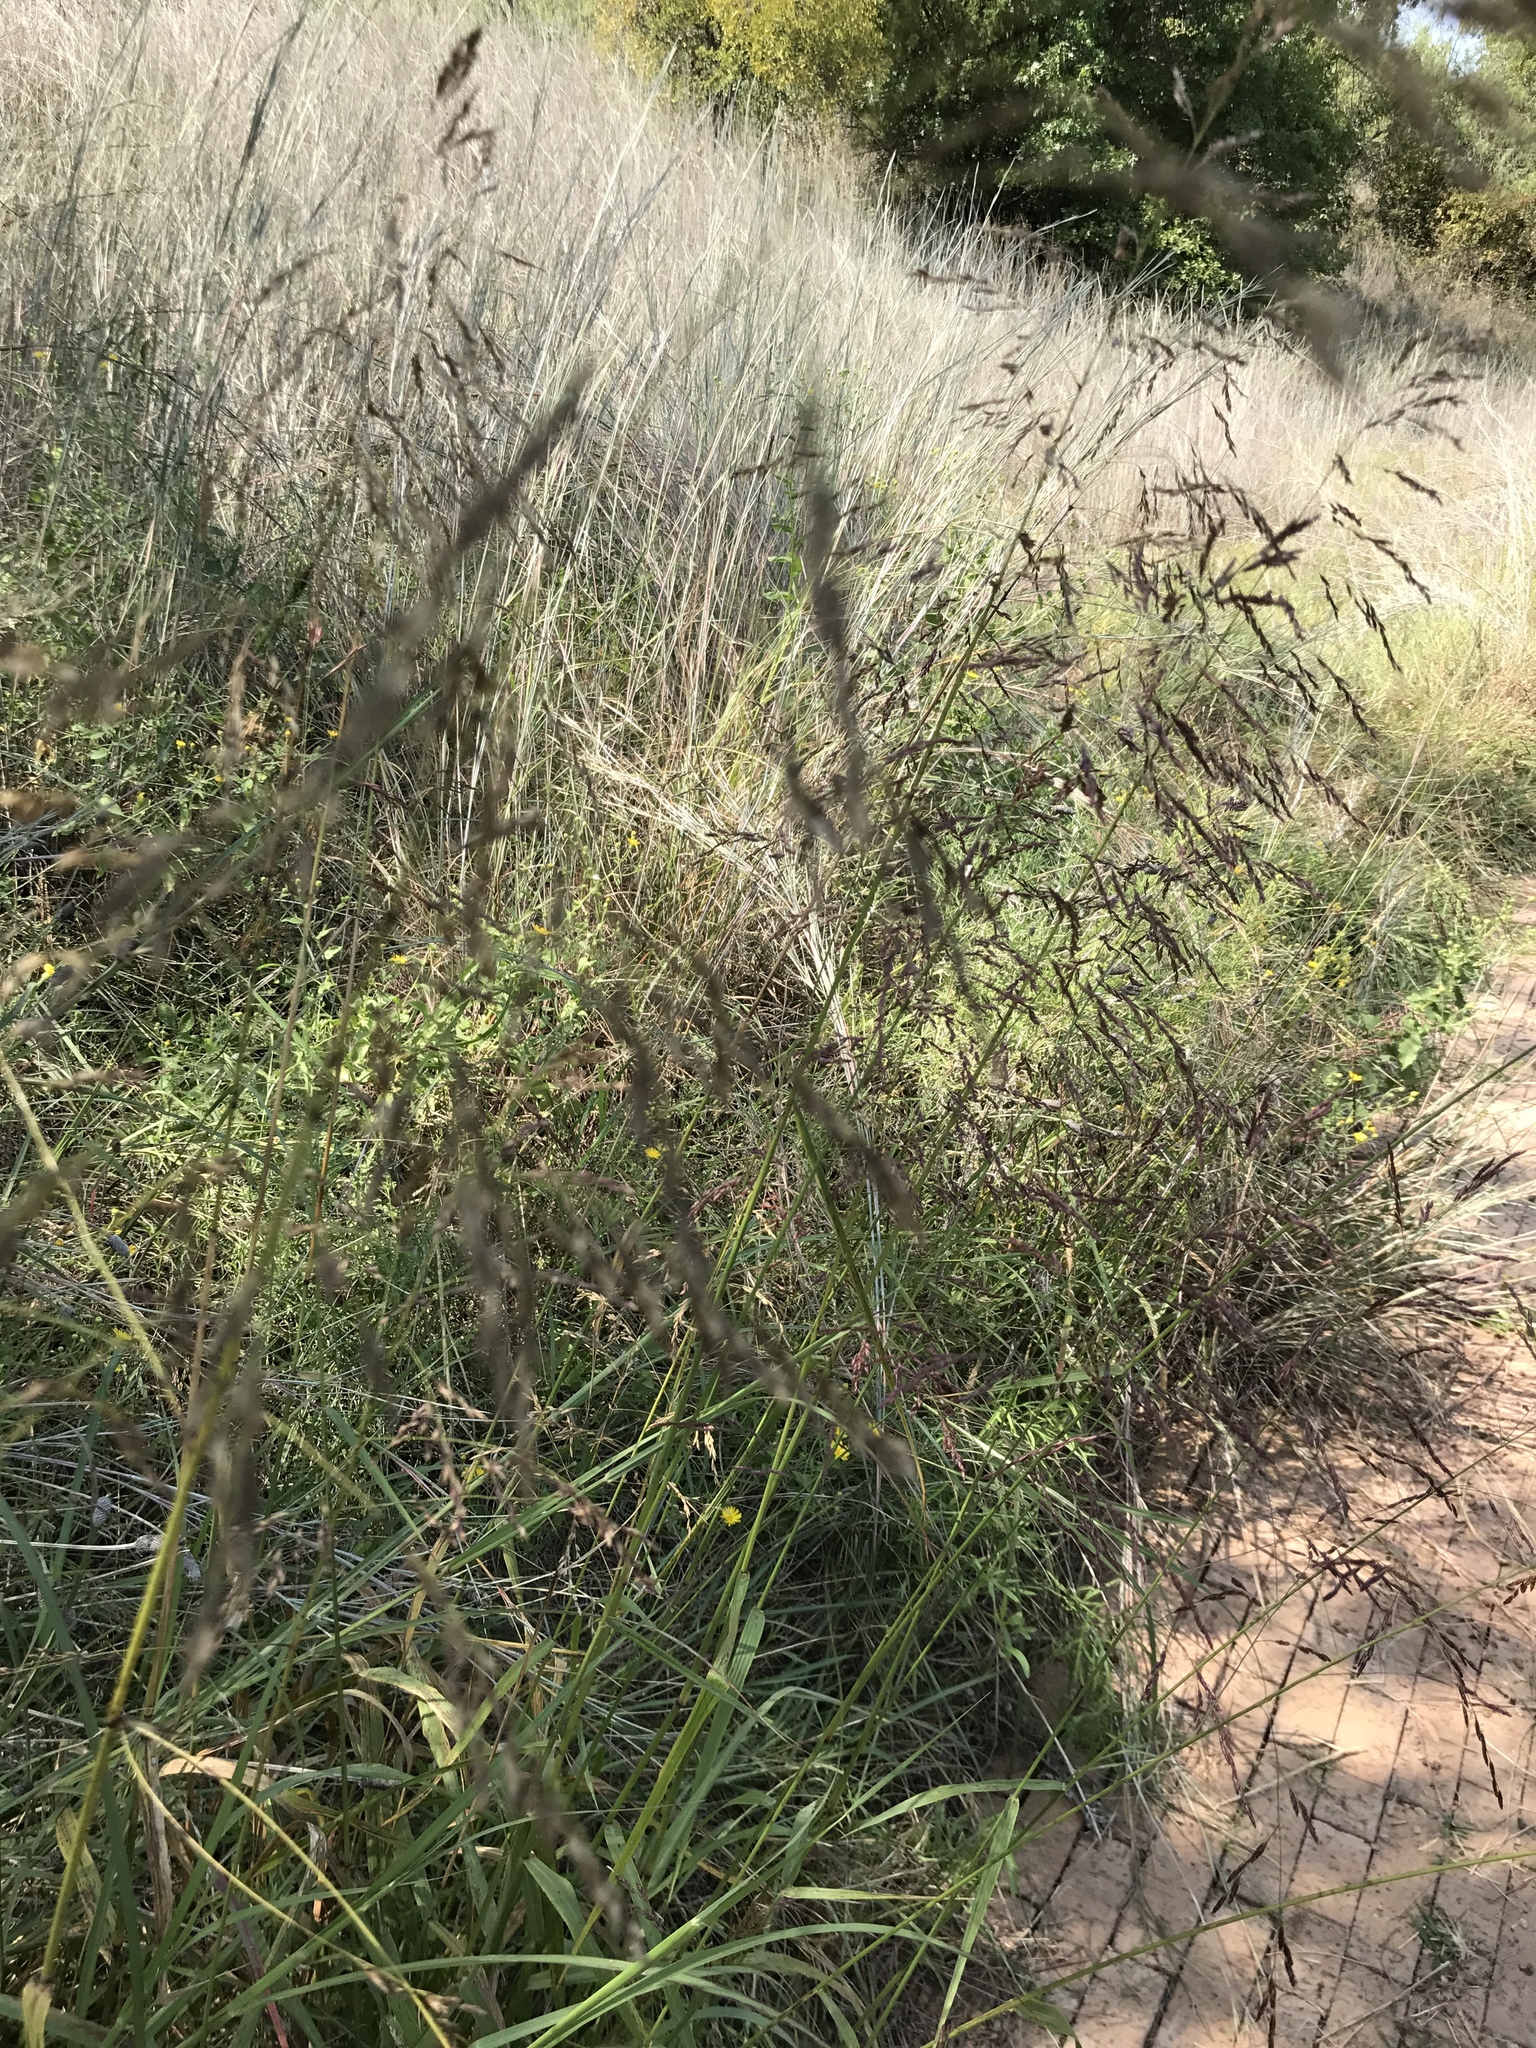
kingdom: Plantae
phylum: Tracheophyta
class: Liliopsida
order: Poales
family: Poaceae
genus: Tridens
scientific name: Tridens flavus
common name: Purpletop
